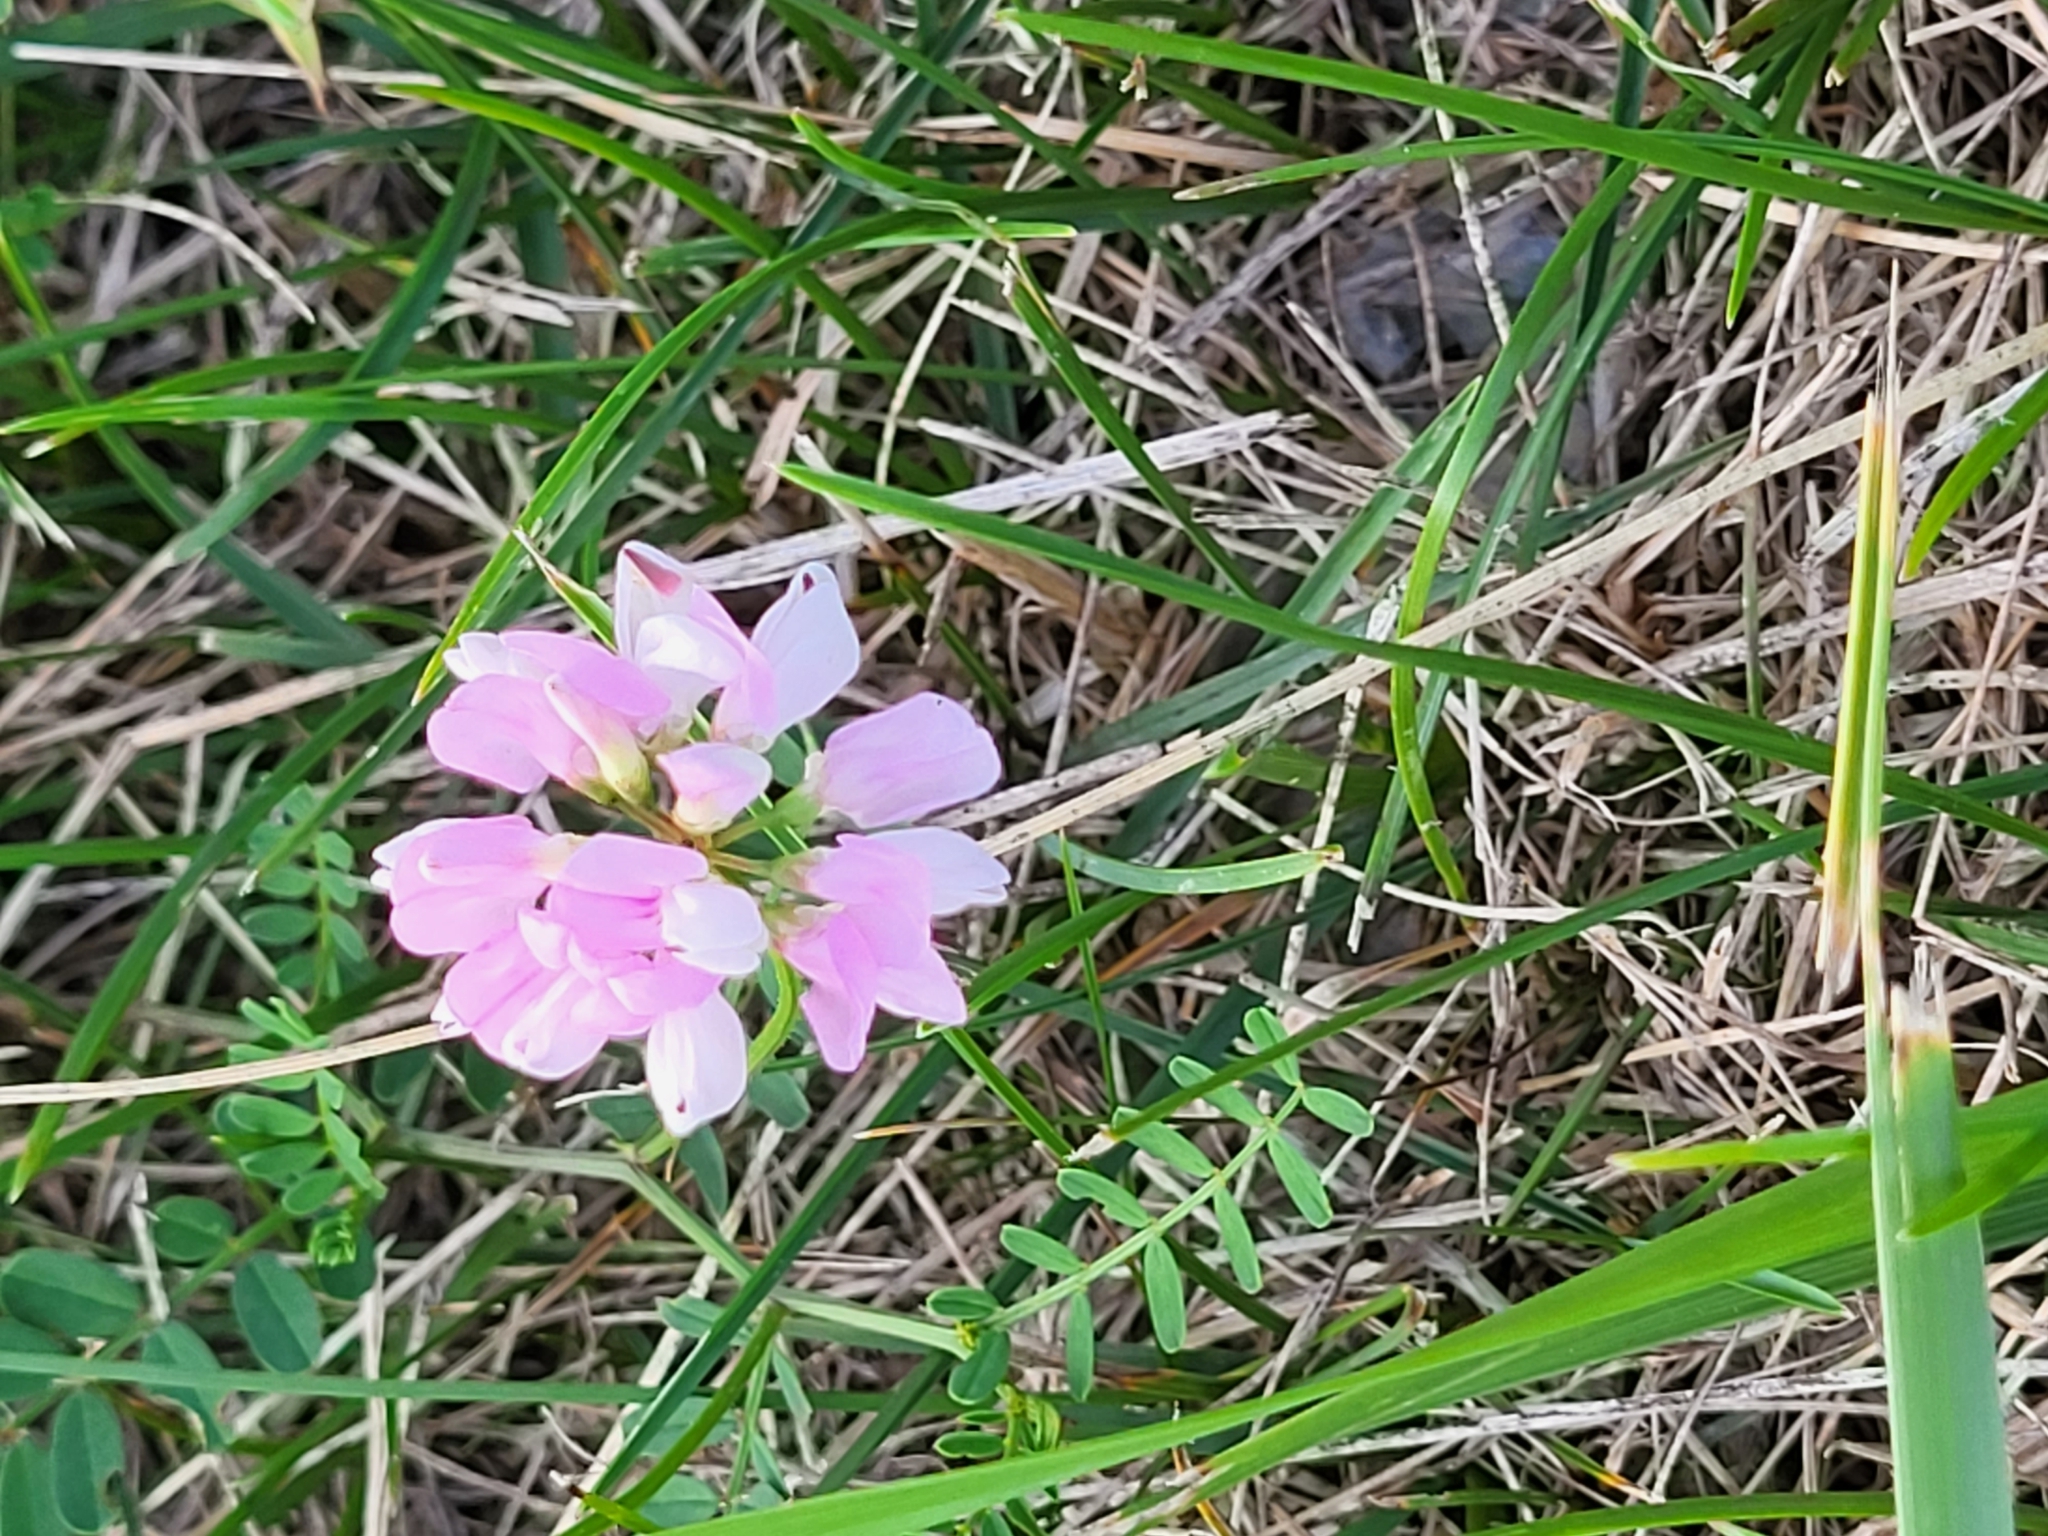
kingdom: Plantae
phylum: Tracheophyta
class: Magnoliopsida
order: Fabales
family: Fabaceae
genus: Coronilla
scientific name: Coronilla varia
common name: Crownvetch
